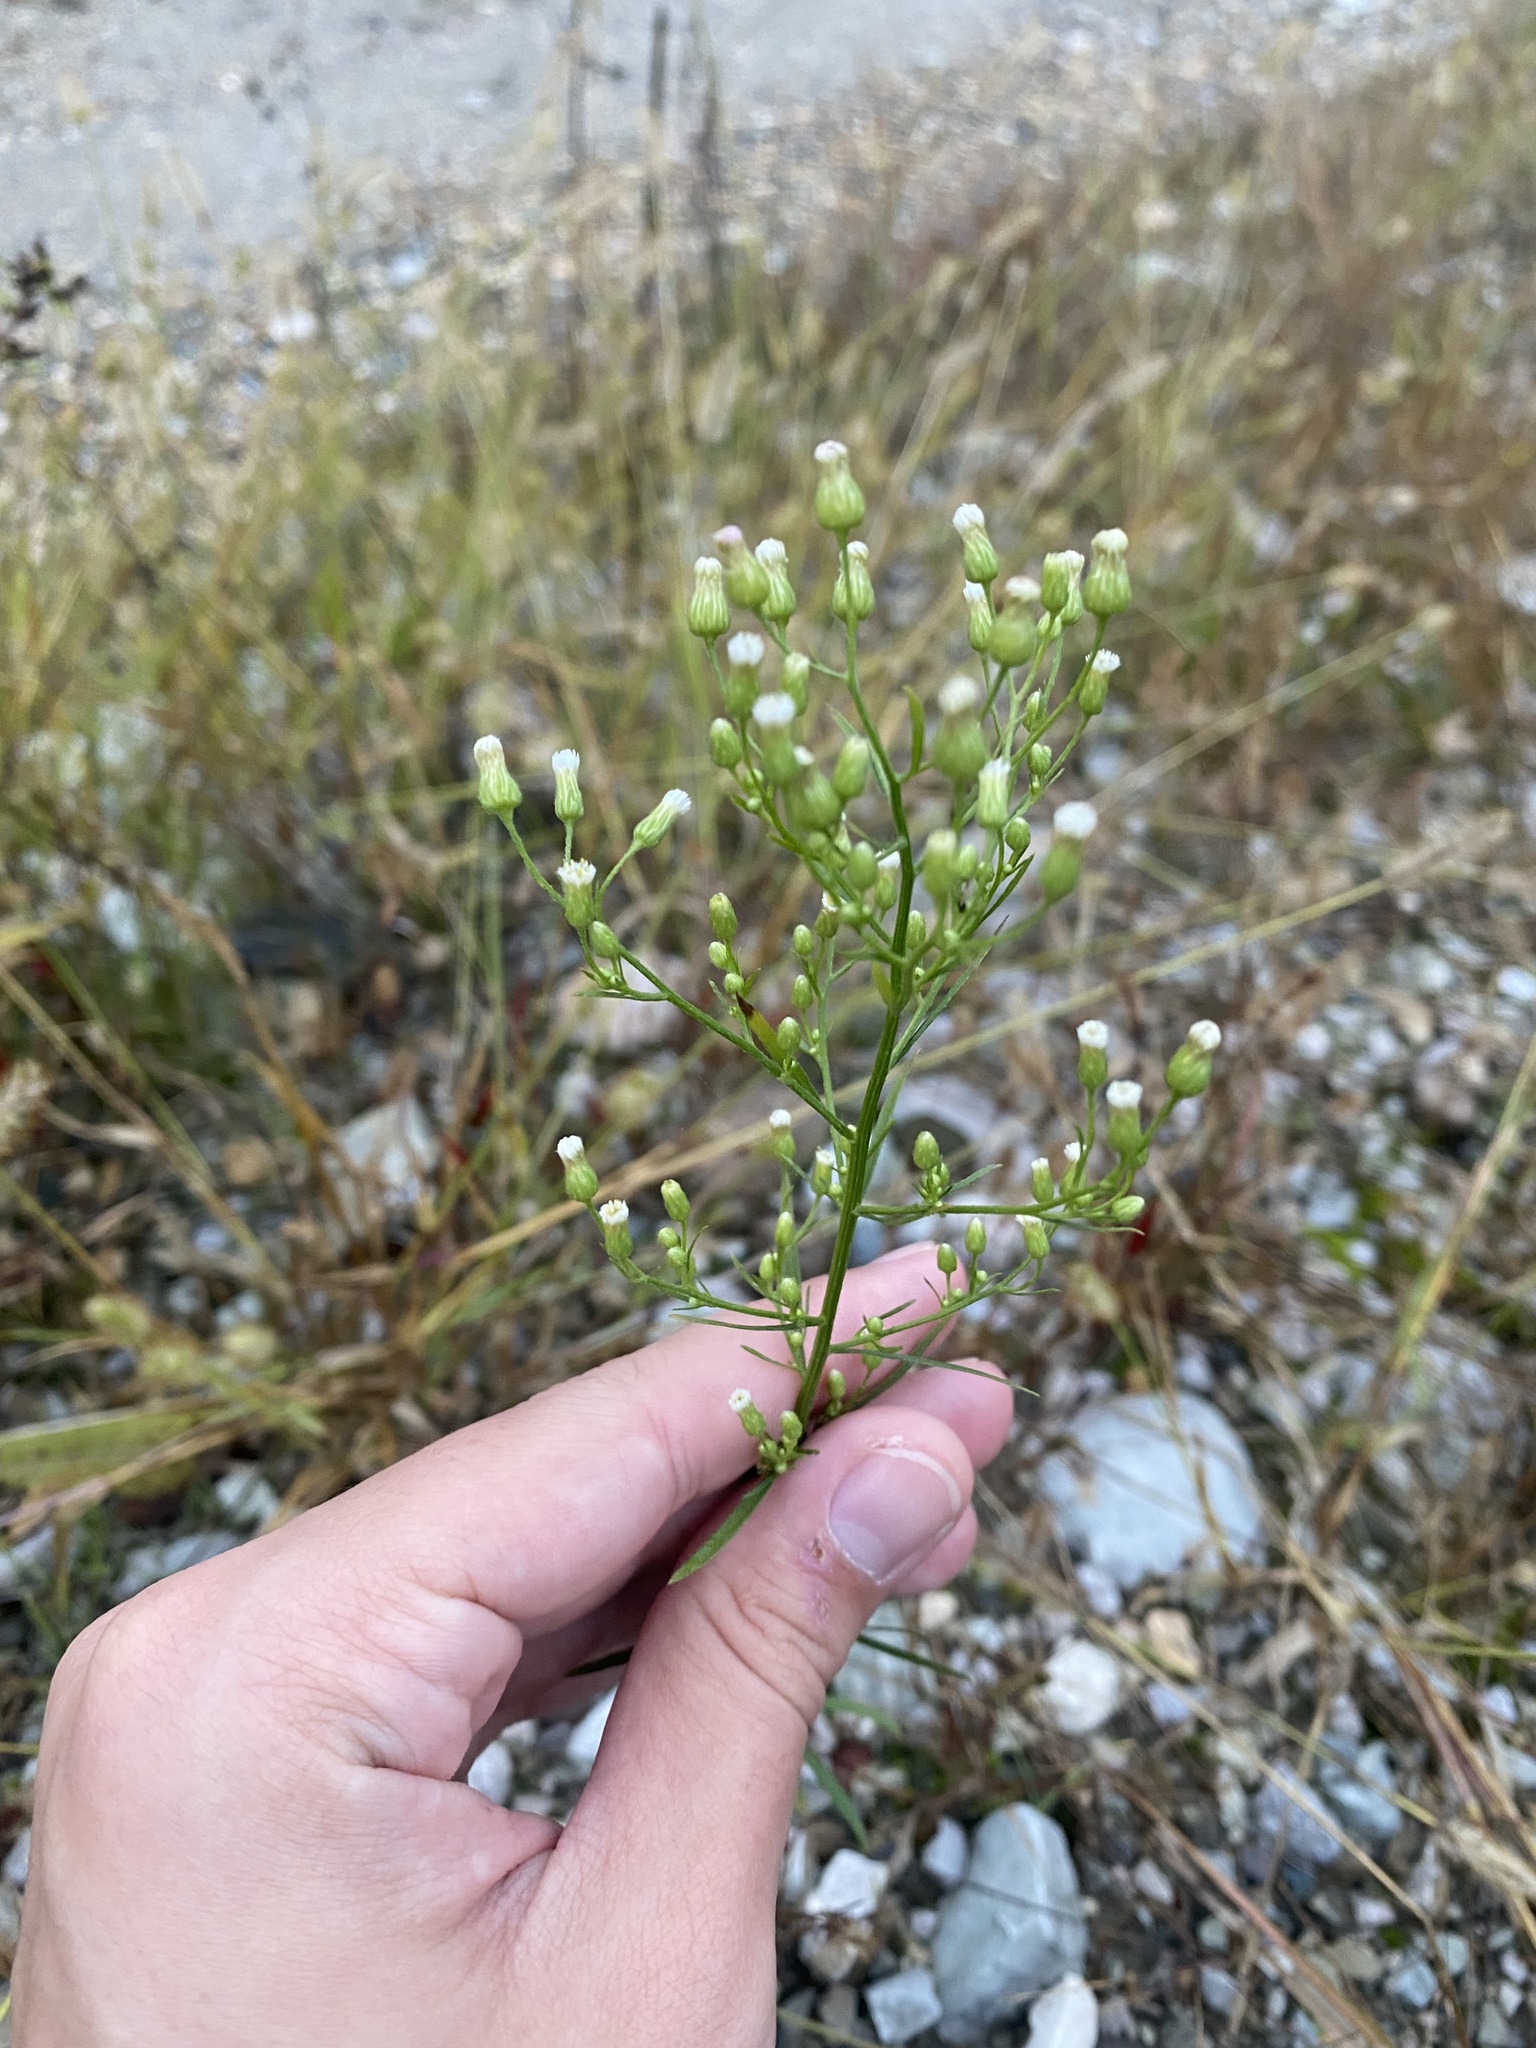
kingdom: Plantae
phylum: Tracheophyta
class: Magnoliopsida
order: Asterales
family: Asteraceae
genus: Erigeron
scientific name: Erigeron canadensis
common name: Canadian fleabane
